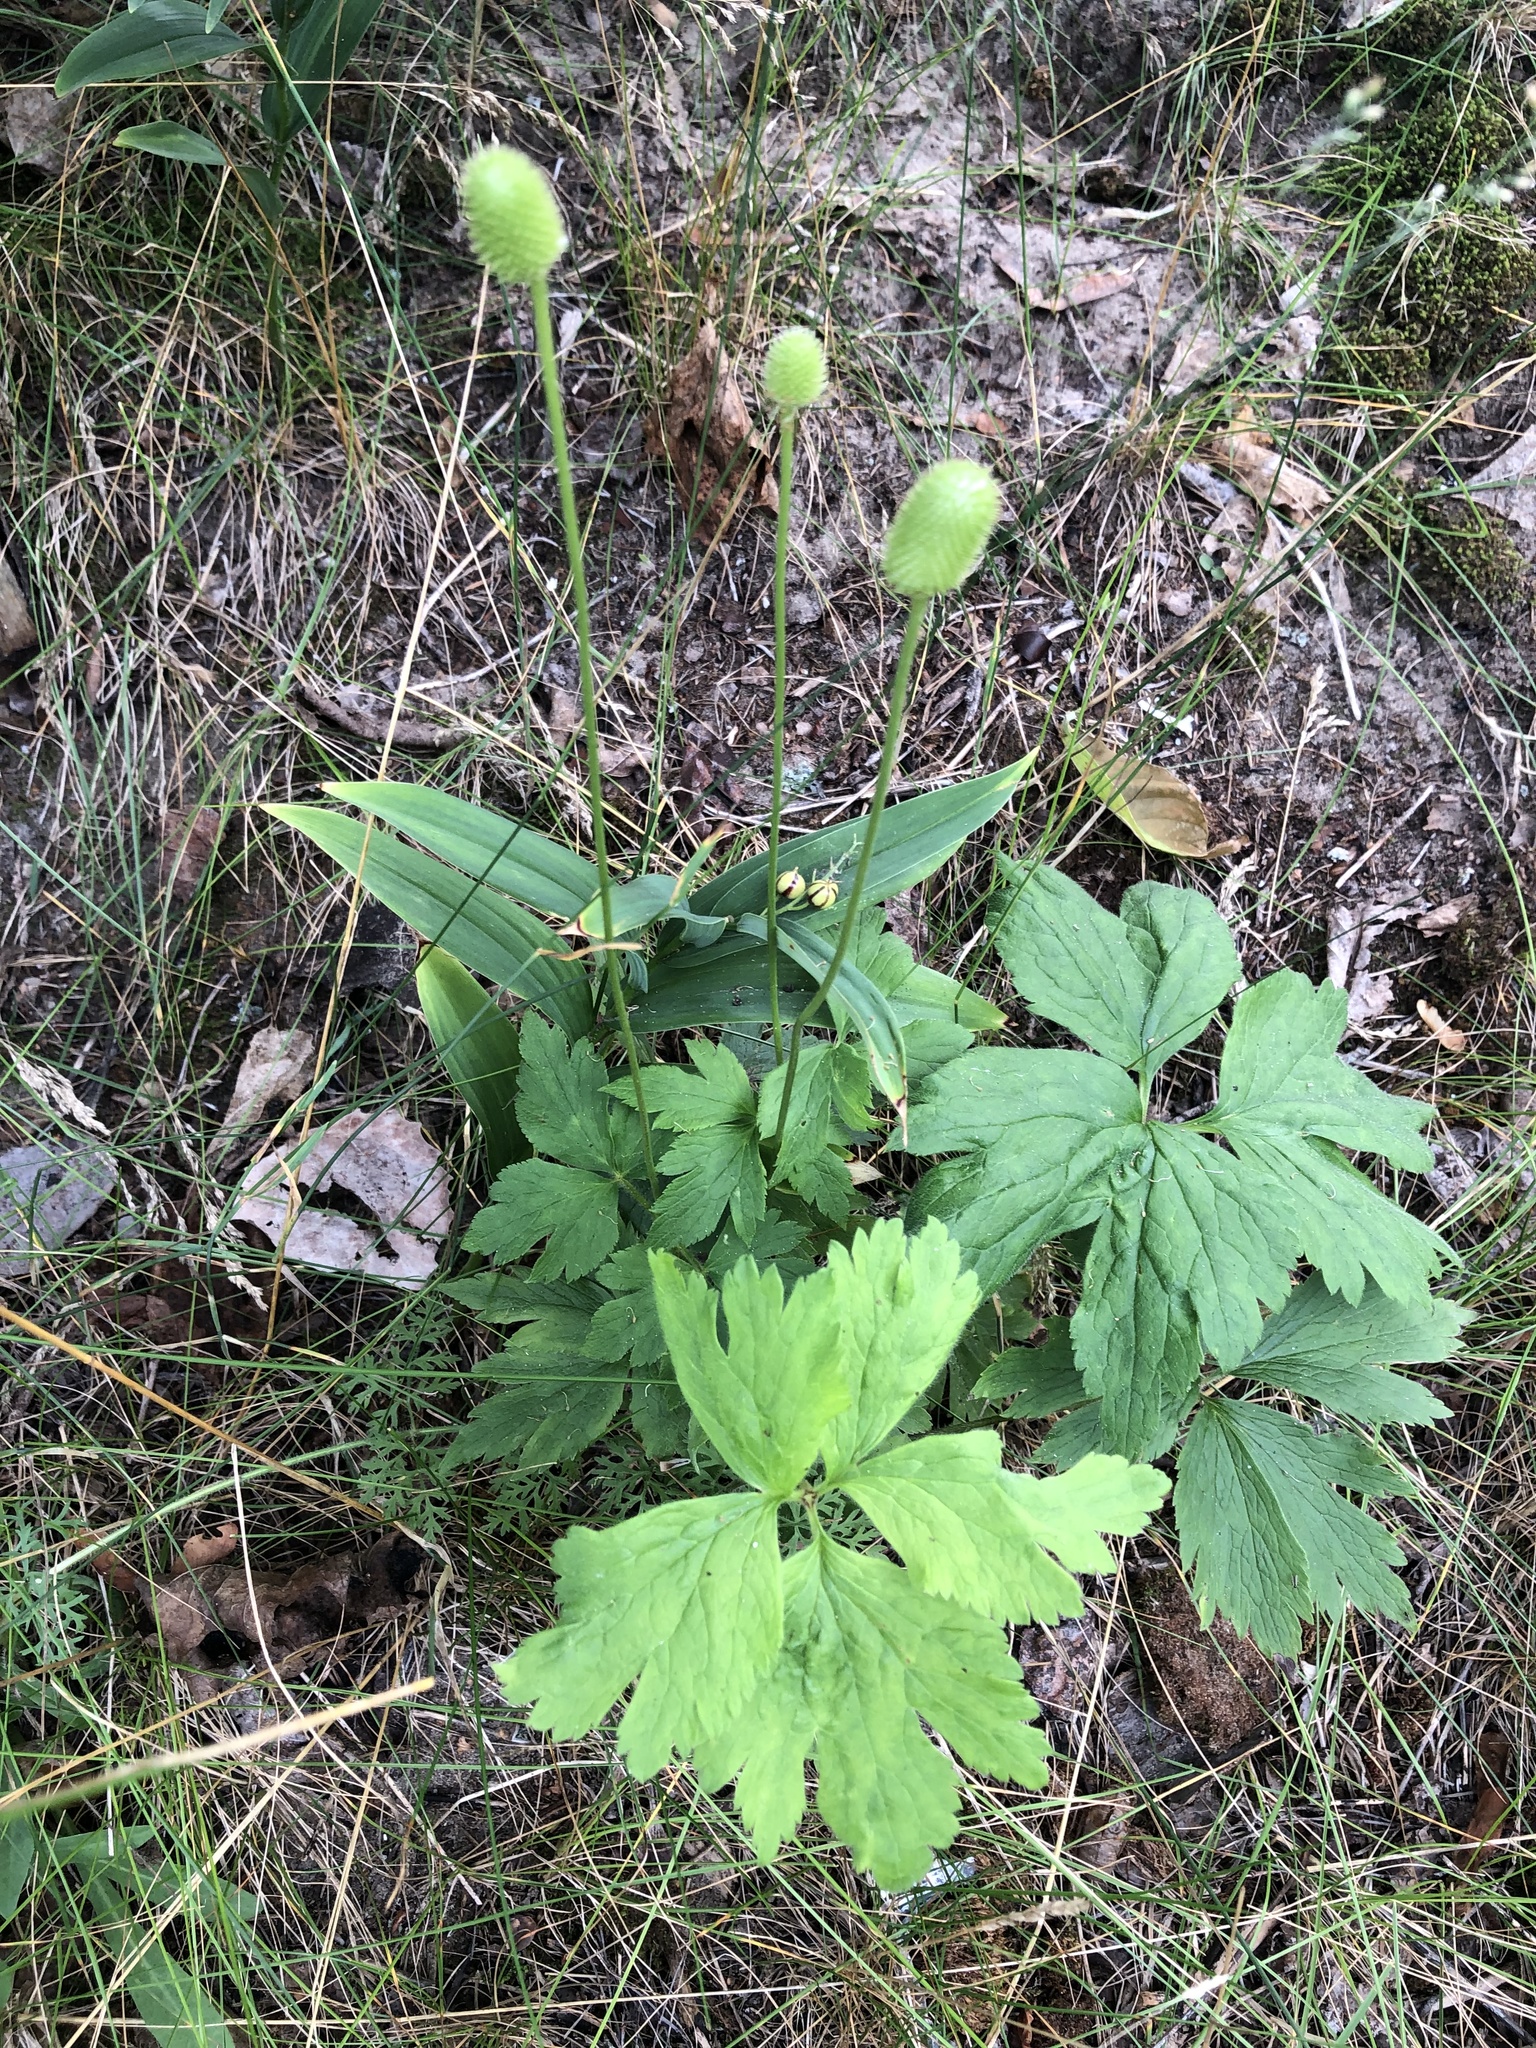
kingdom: Plantae
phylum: Tracheophyta
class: Magnoliopsida
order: Ranunculales
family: Ranunculaceae
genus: Anemone
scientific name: Anemone virginiana
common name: Tall anemone
